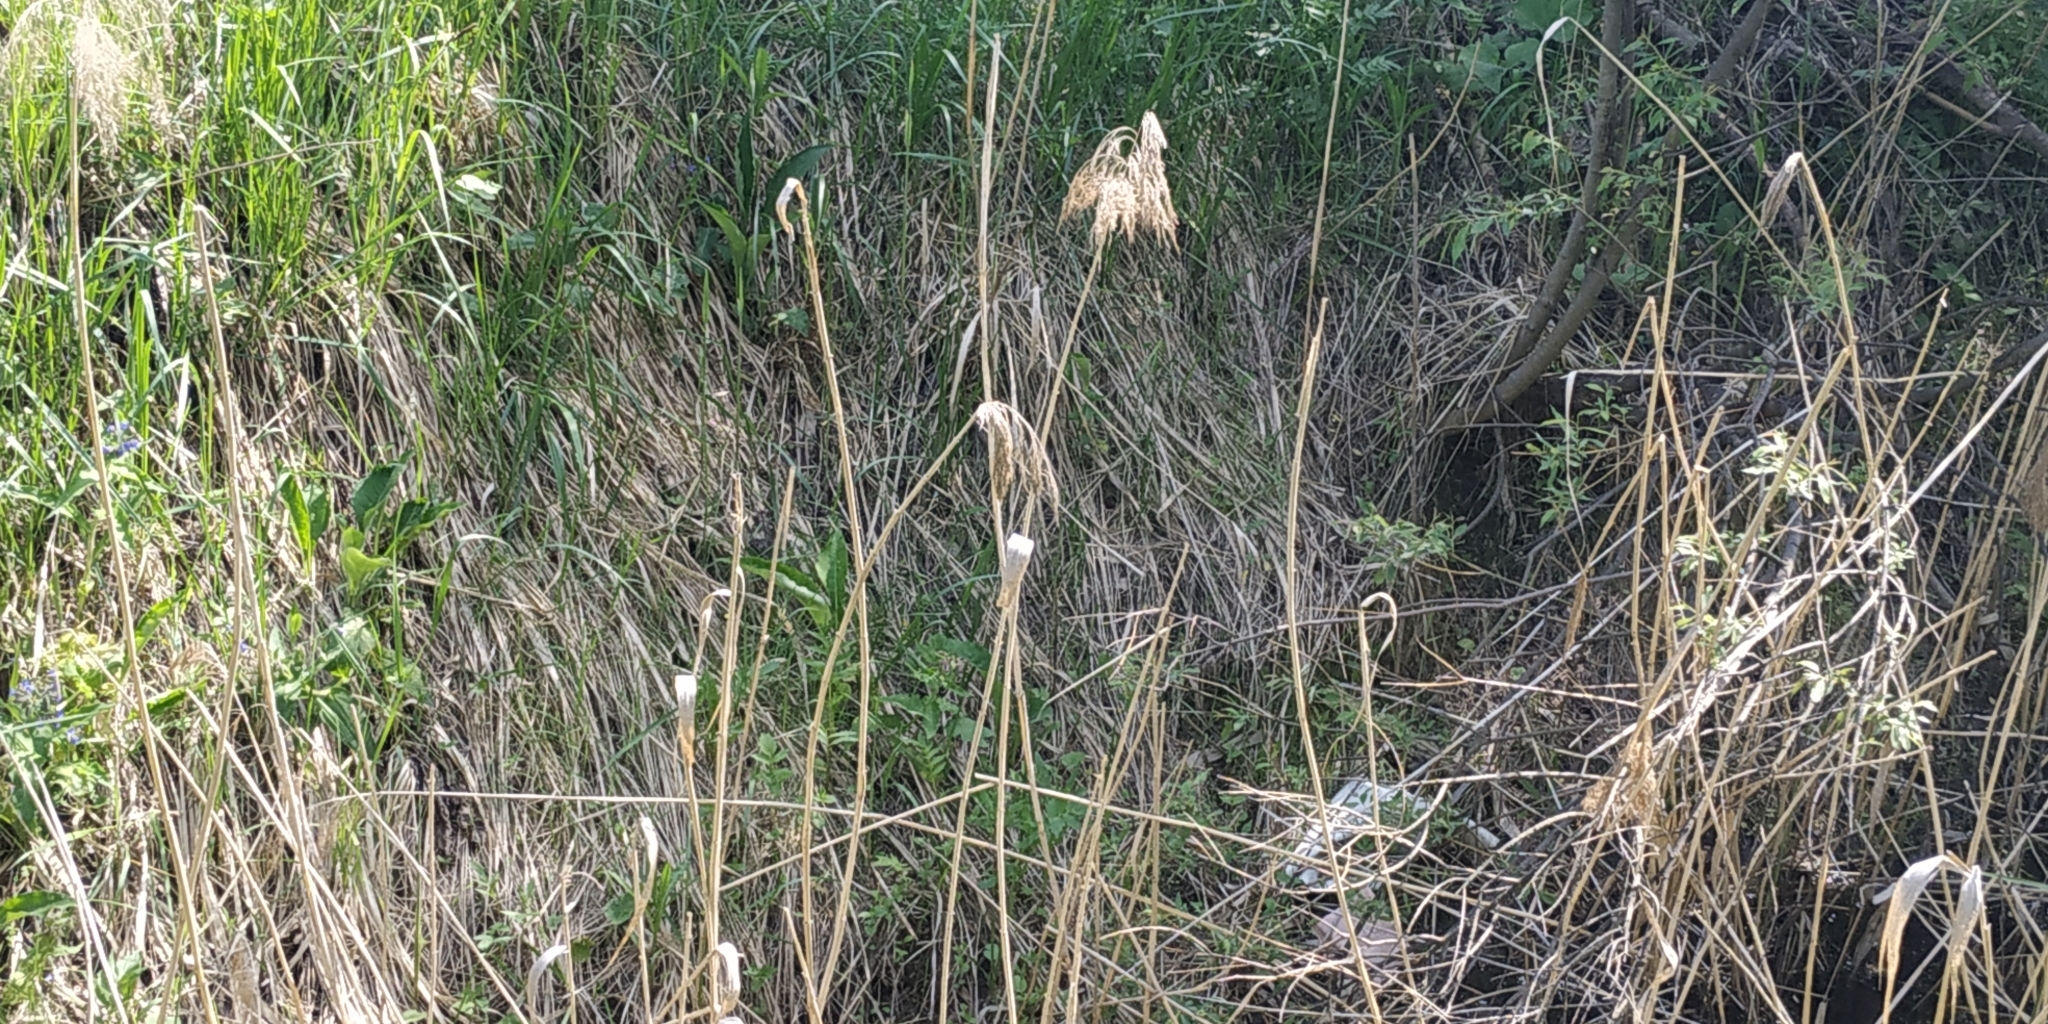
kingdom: Plantae
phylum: Tracheophyta
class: Liliopsida
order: Poales
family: Poaceae
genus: Phragmites
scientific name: Phragmites australis
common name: Common reed
